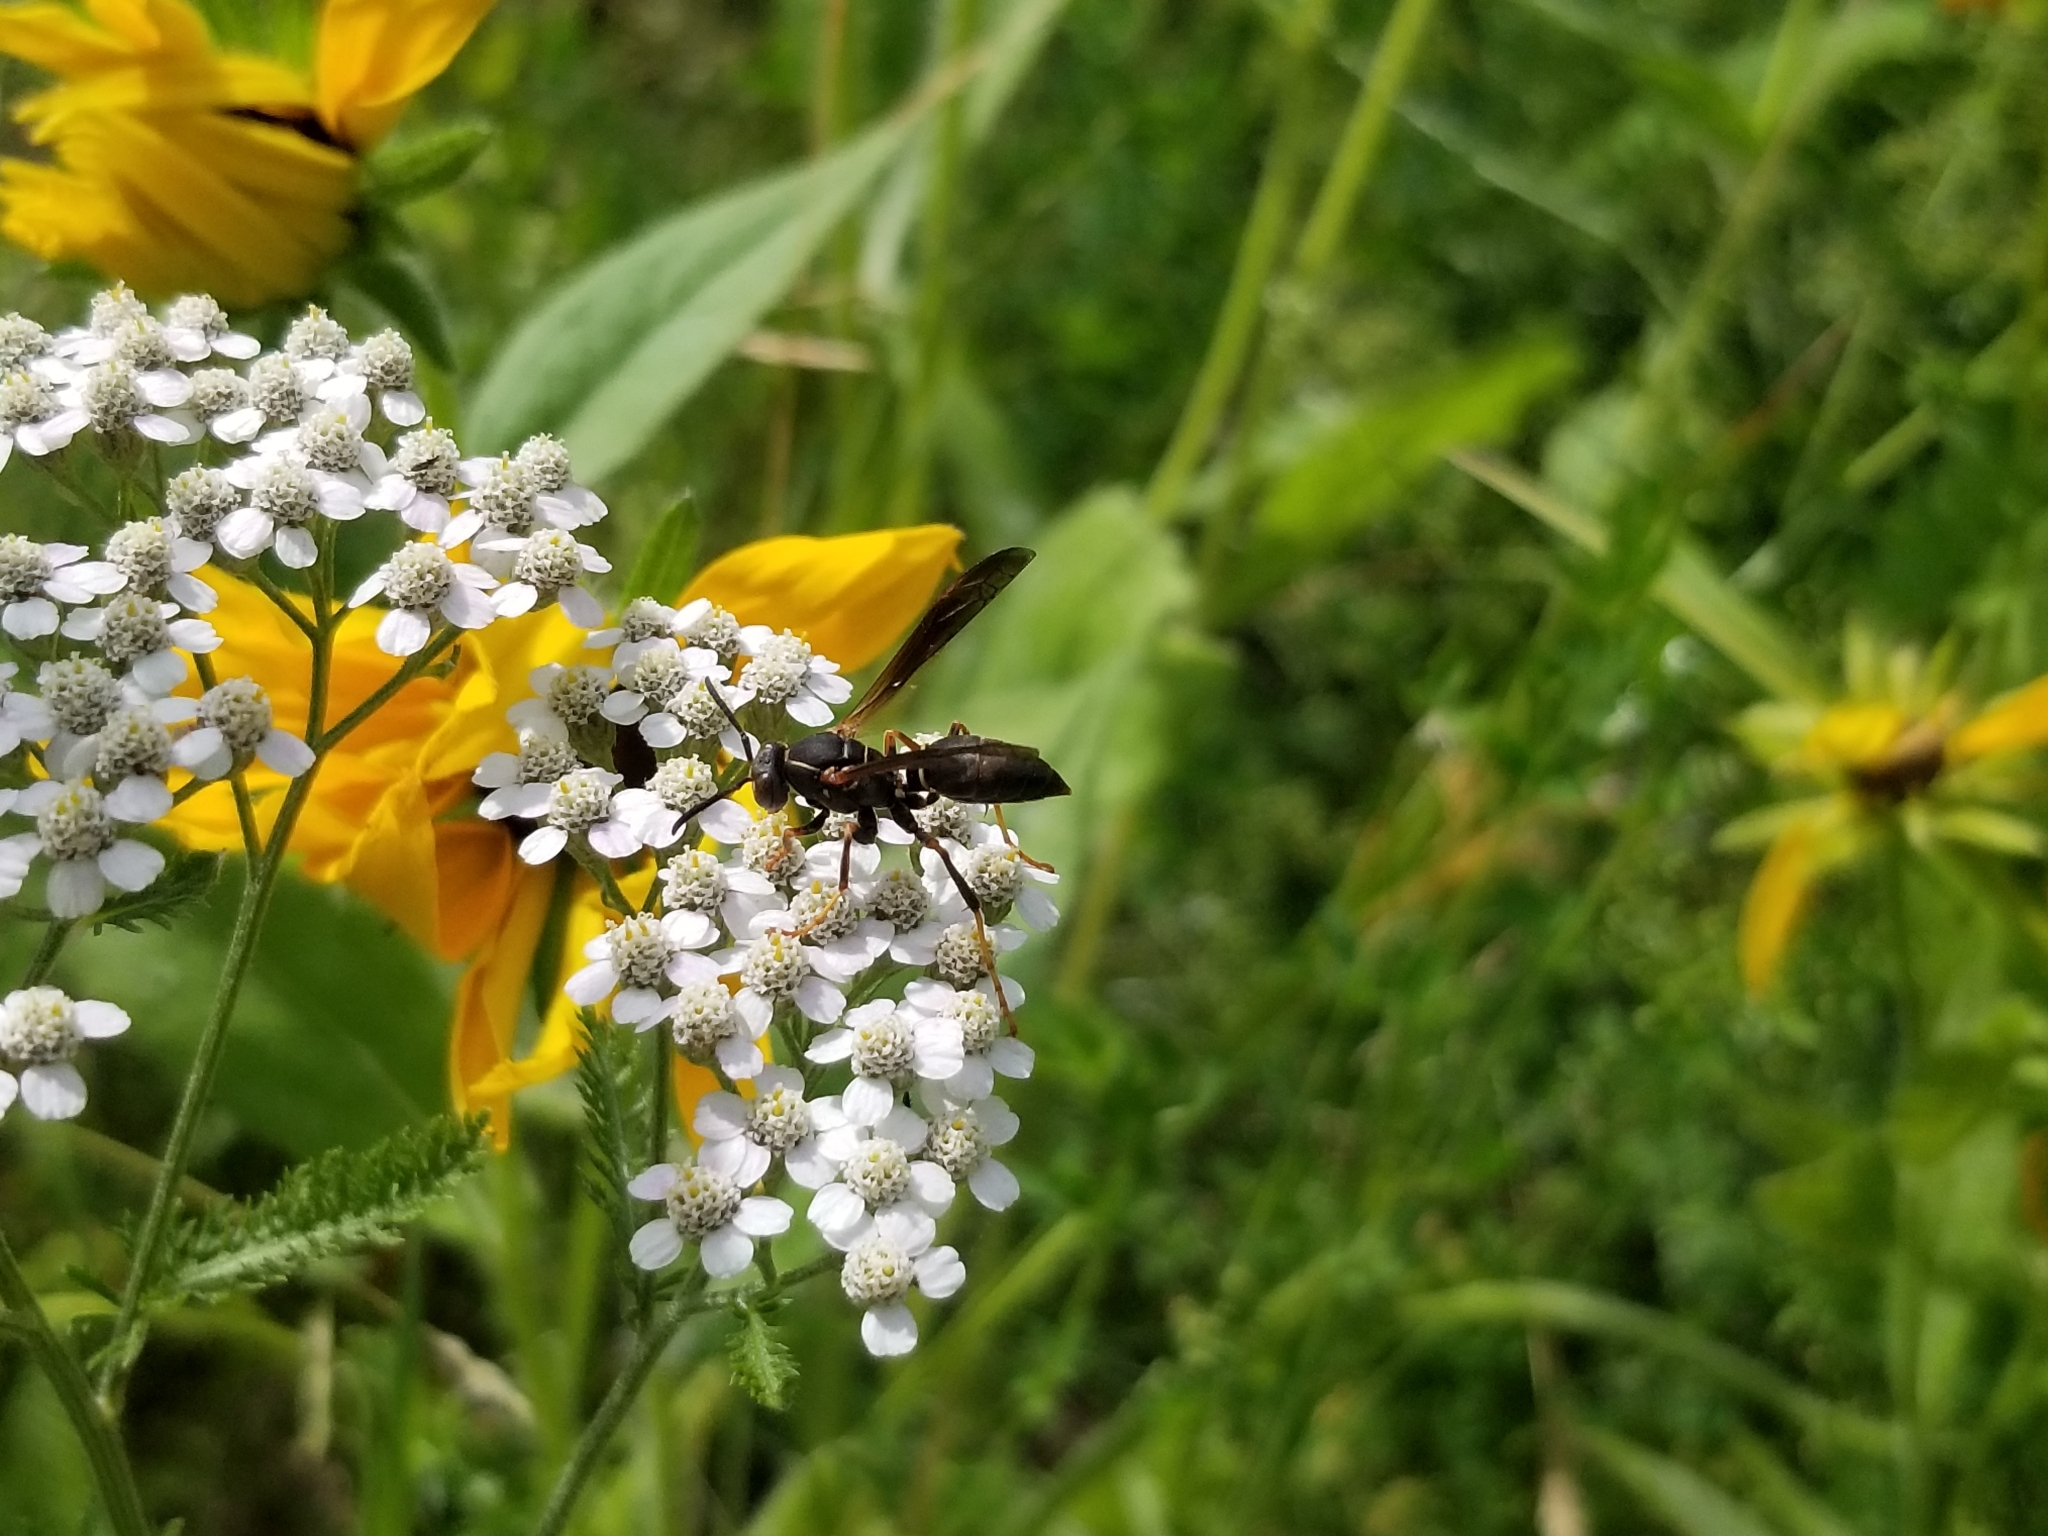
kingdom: Animalia
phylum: Arthropoda
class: Insecta
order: Hymenoptera
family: Eumenidae
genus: Polistes
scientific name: Polistes fuscatus
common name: Dark paper wasp
